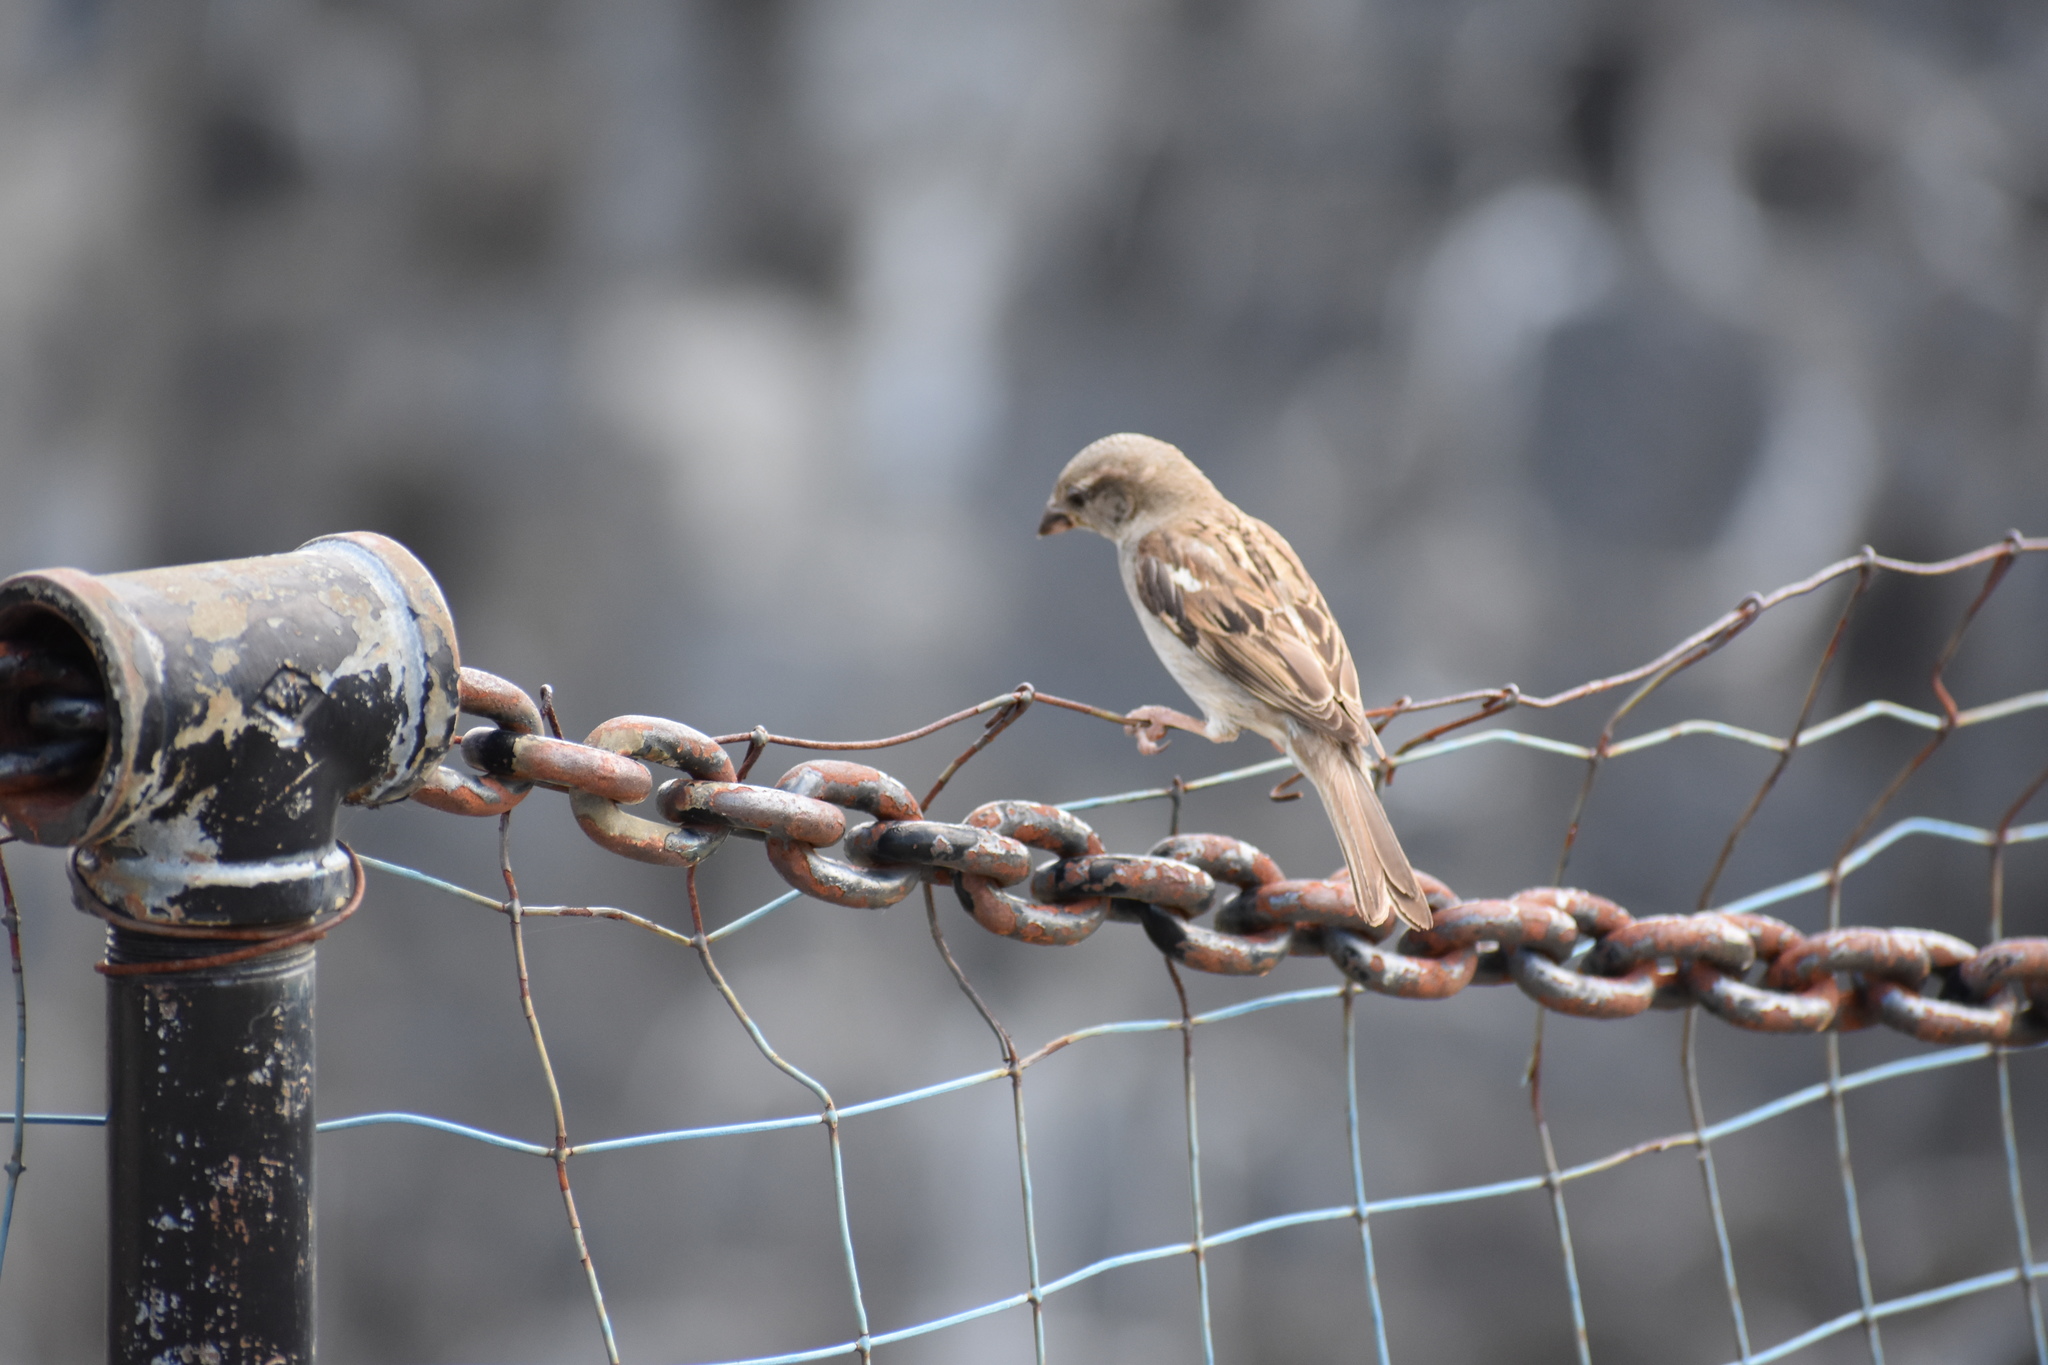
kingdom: Animalia
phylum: Chordata
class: Aves
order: Passeriformes
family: Passeridae
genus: Passer
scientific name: Passer domesticus
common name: House sparrow
